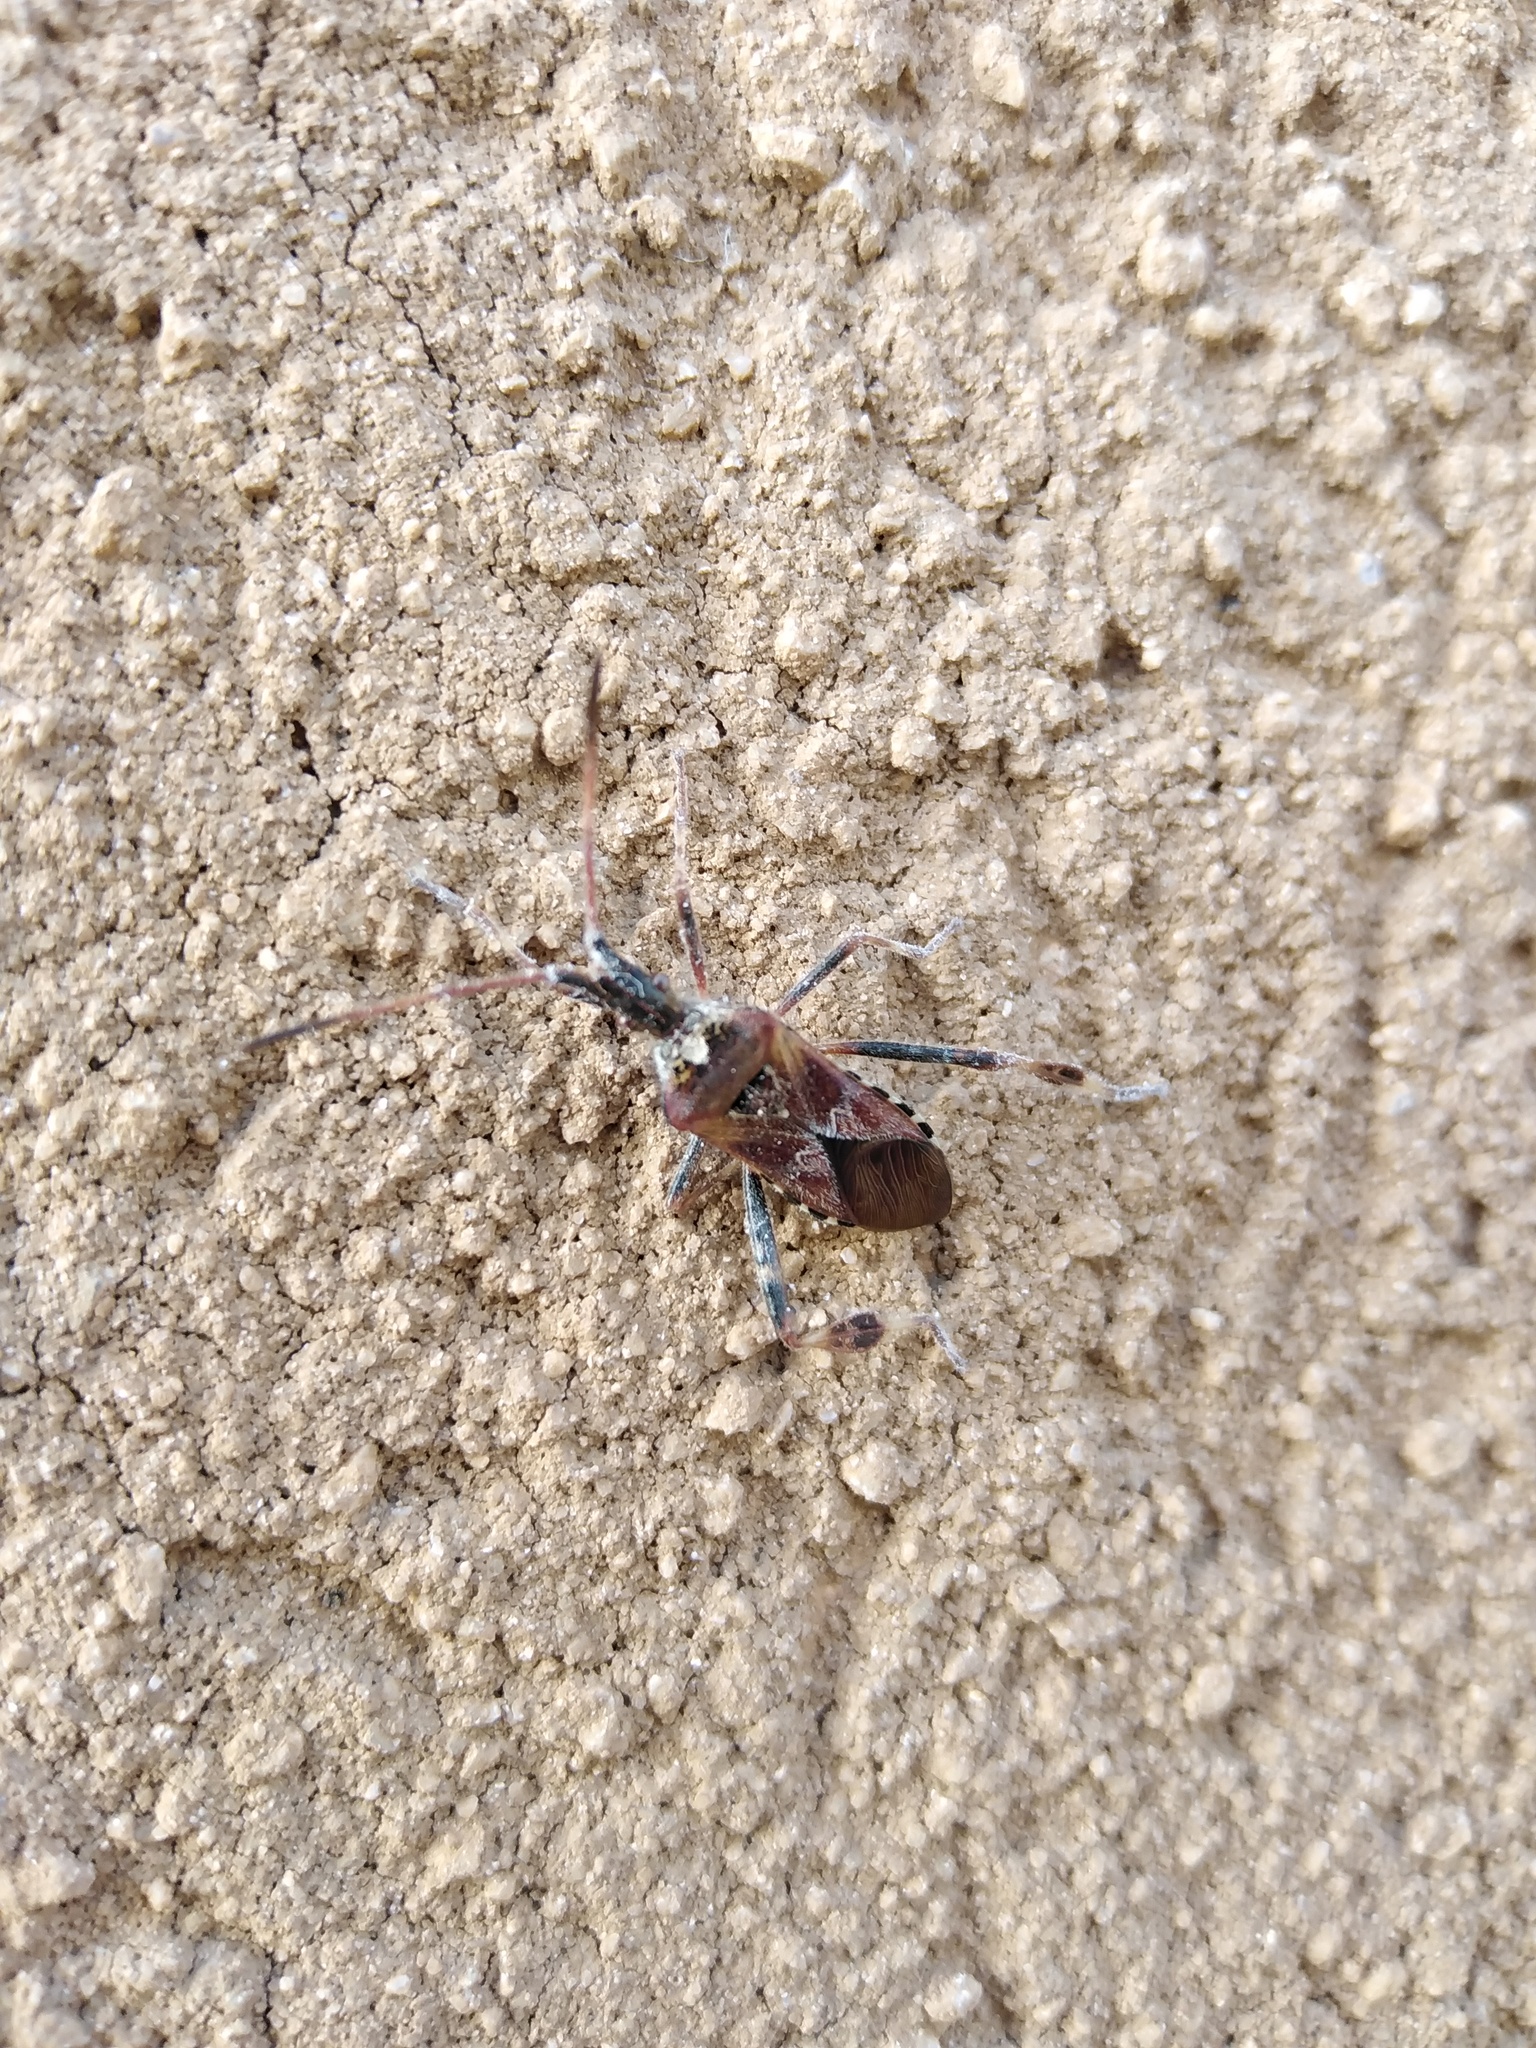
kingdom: Animalia
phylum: Arthropoda
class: Insecta
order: Hemiptera
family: Coreidae
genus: Leptoglossus
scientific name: Leptoglossus occidentalis
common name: Western conifer-seed bug
